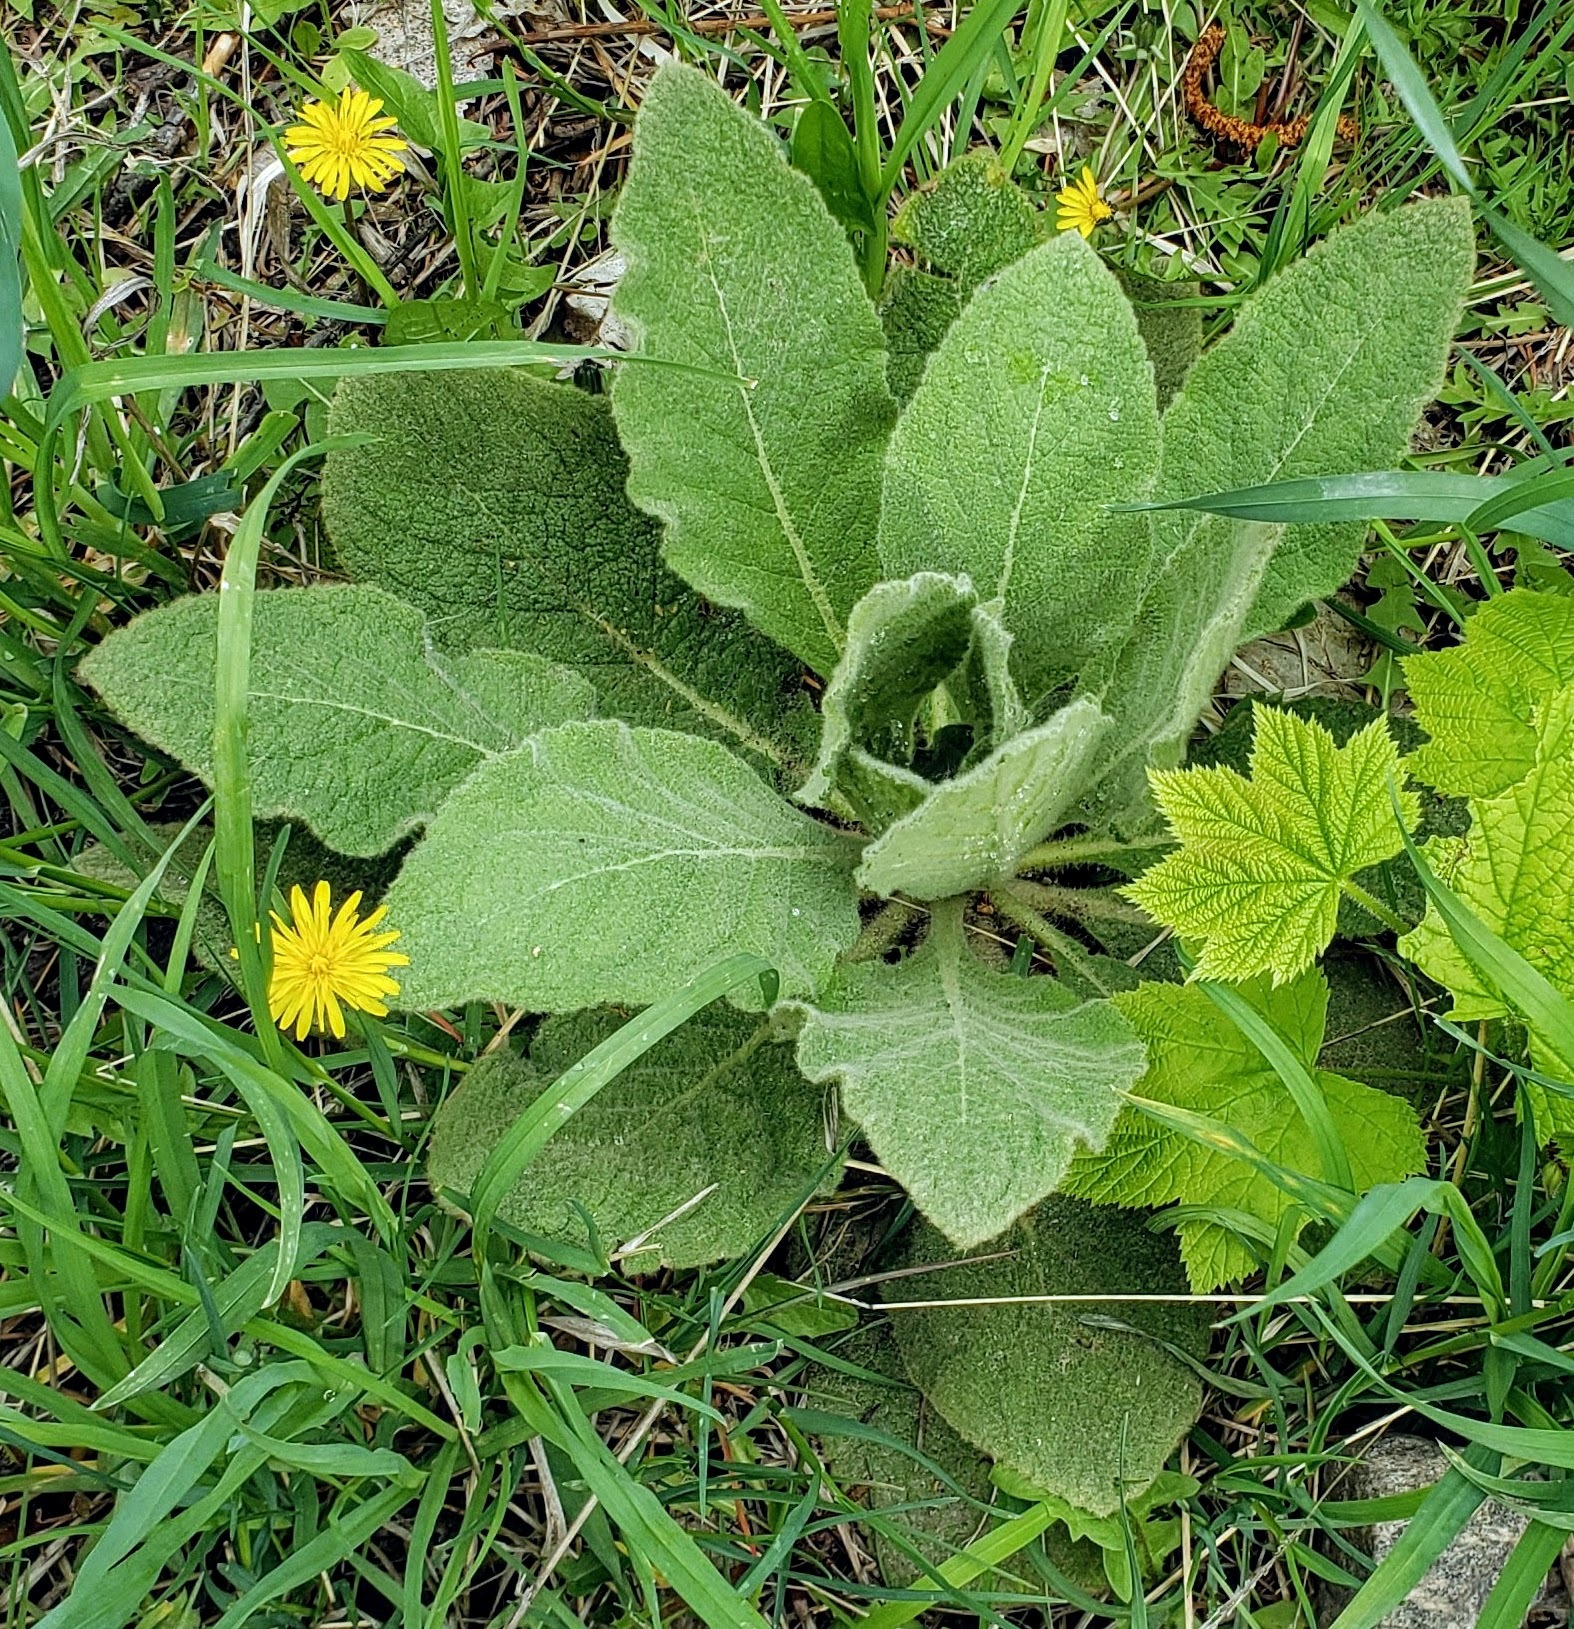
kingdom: Plantae
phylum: Tracheophyta
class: Magnoliopsida
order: Lamiales
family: Scrophulariaceae
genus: Verbascum
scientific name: Verbascum thapsus
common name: Common mullein
